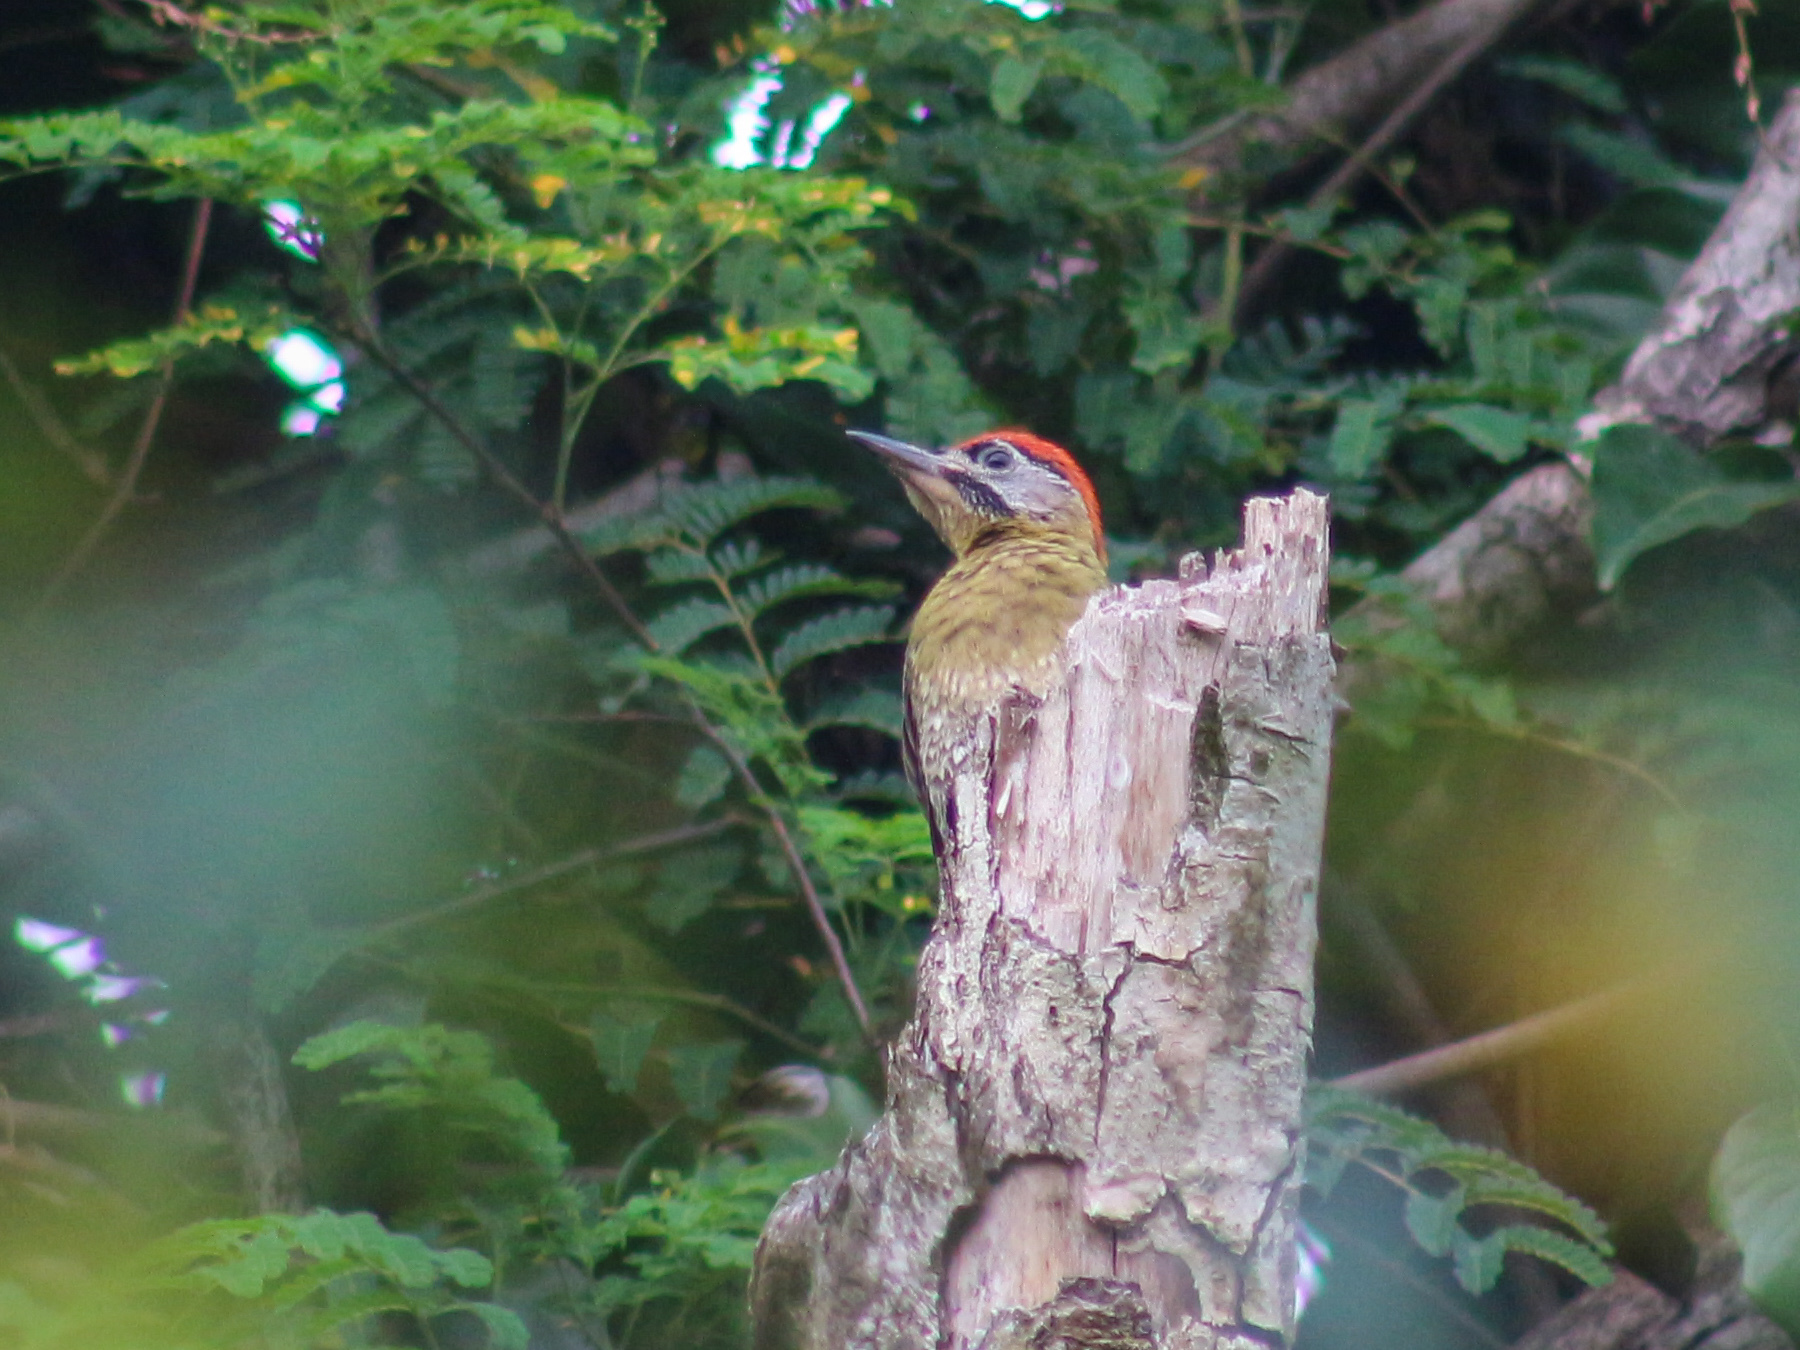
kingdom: Animalia
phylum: Chordata
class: Aves
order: Piciformes
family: Picidae
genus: Picus
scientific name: Picus vittatus
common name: Laced woodpecker
